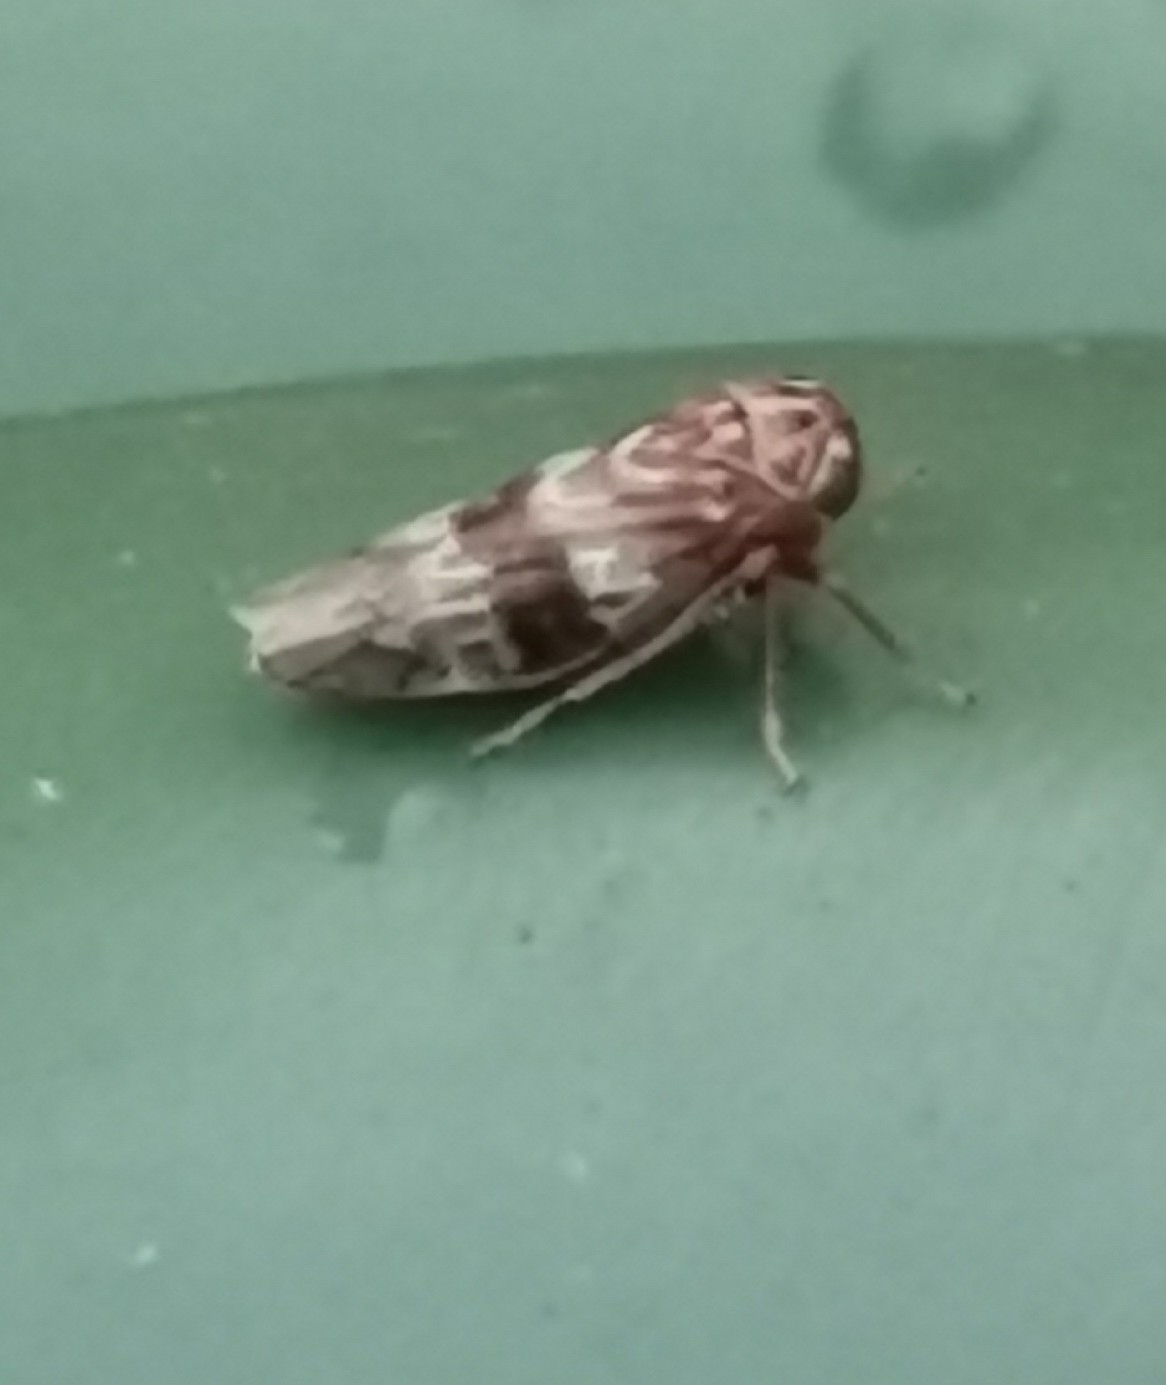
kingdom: Animalia
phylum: Arthropoda
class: Insecta
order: Hemiptera
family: Cicadellidae
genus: Tremulicerus
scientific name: Tremulicerus tremulae
